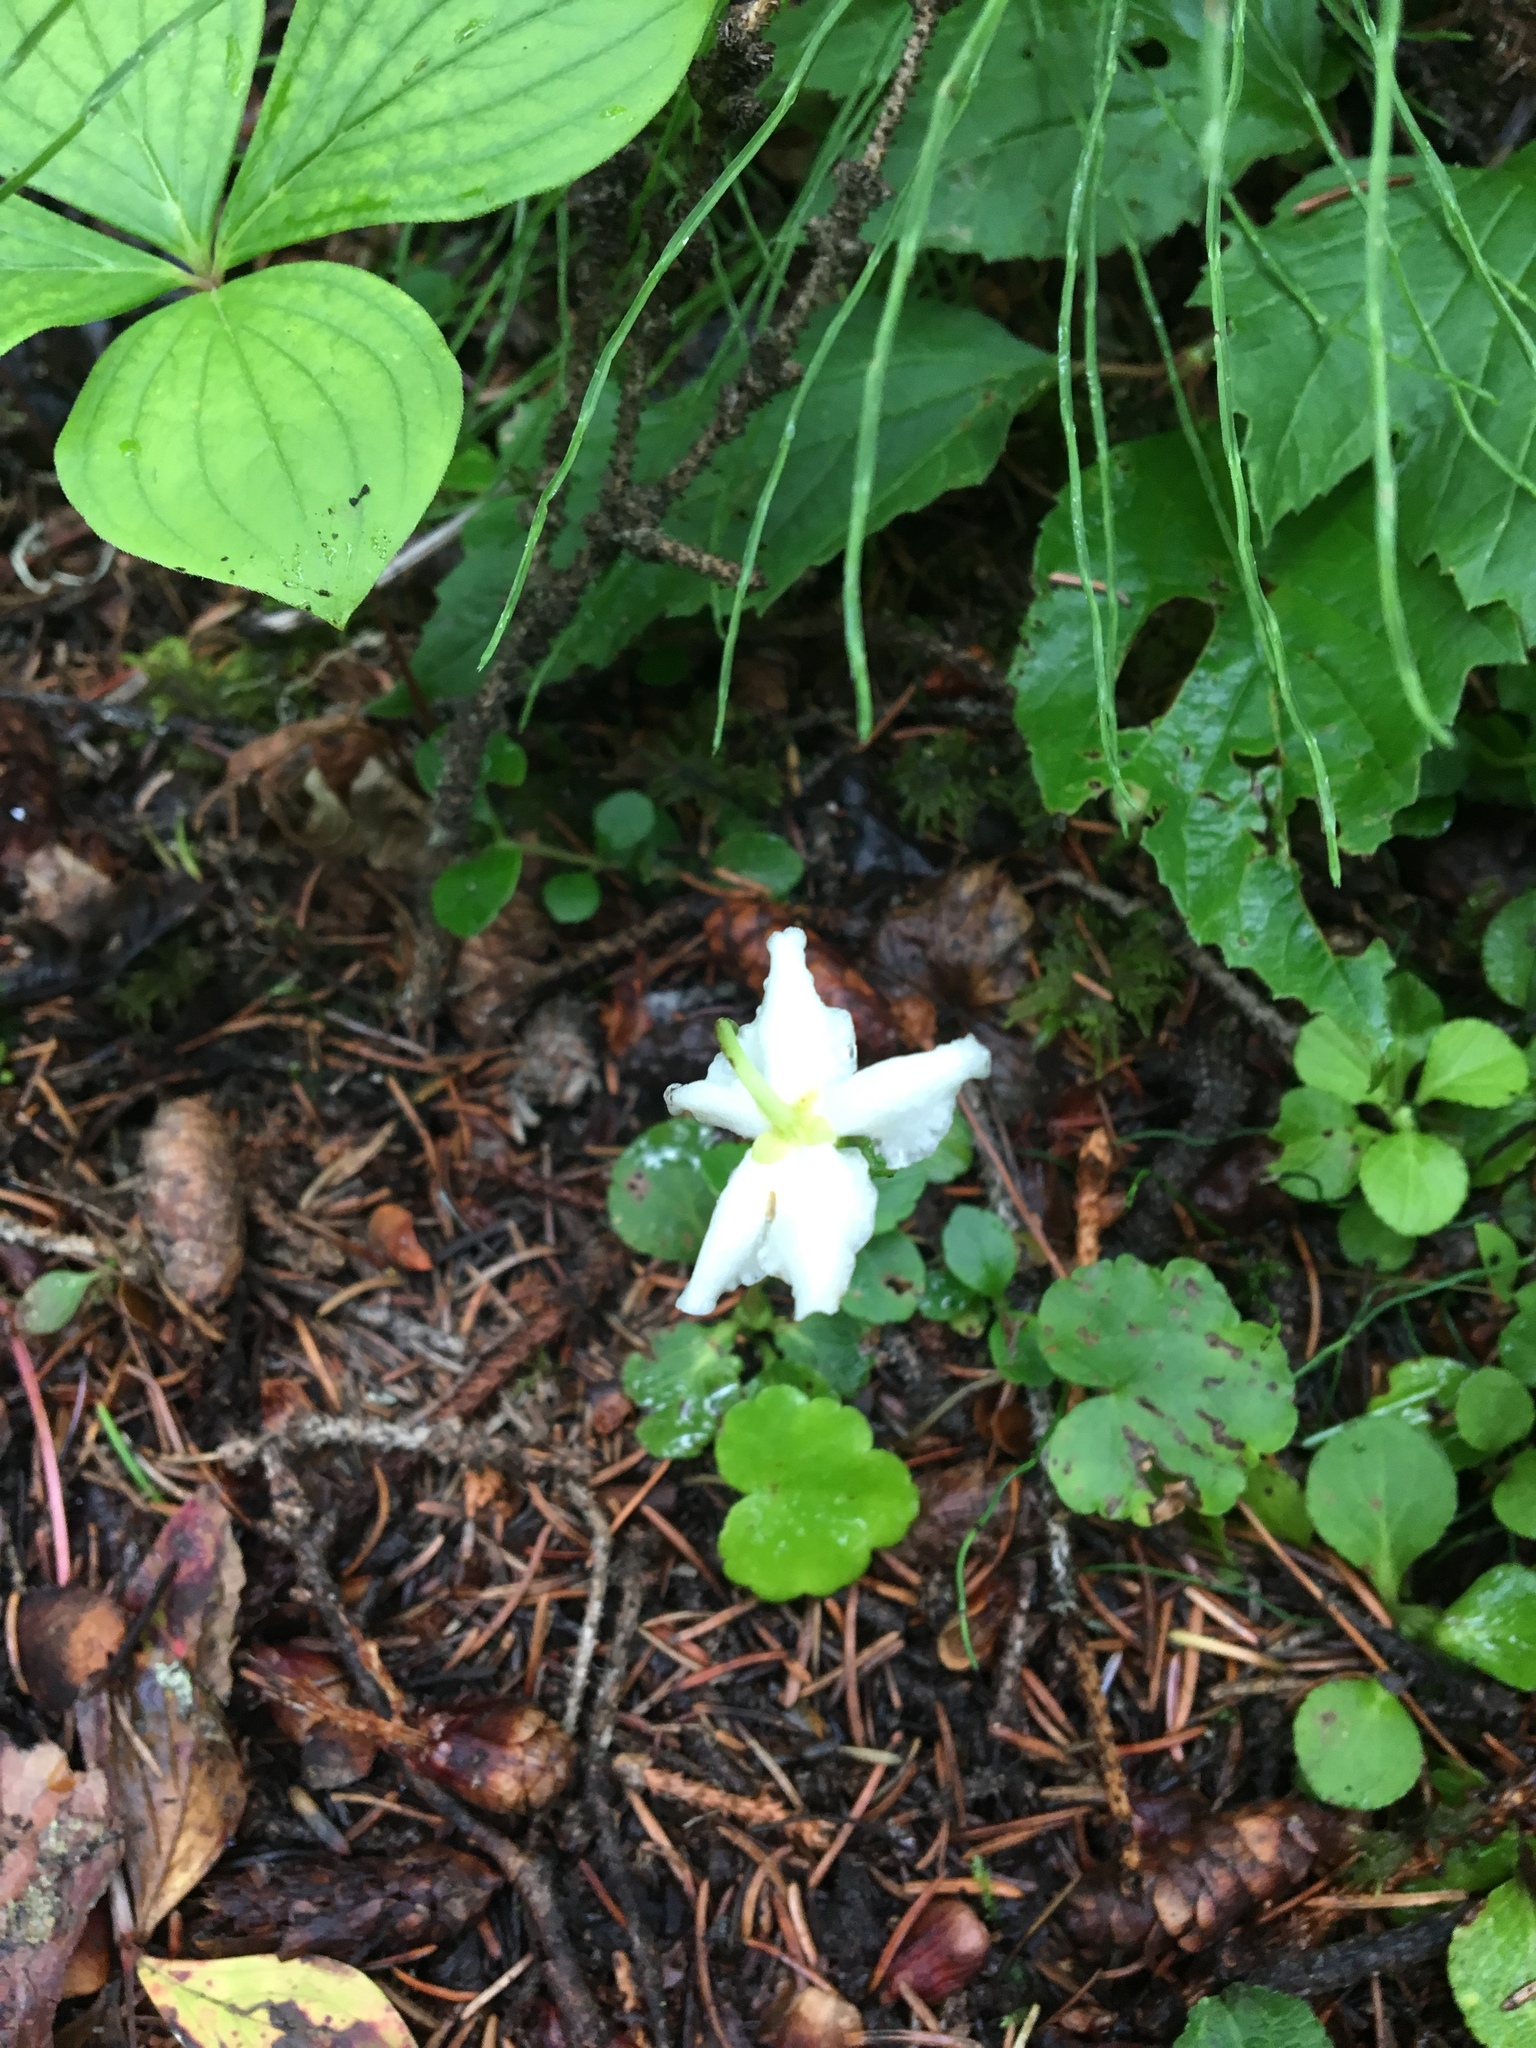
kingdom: Plantae
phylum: Tracheophyta
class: Magnoliopsida
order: Ericales
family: Ericaceae
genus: Moneses
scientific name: Moneses uniflora
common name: One-flowered wintergreen
